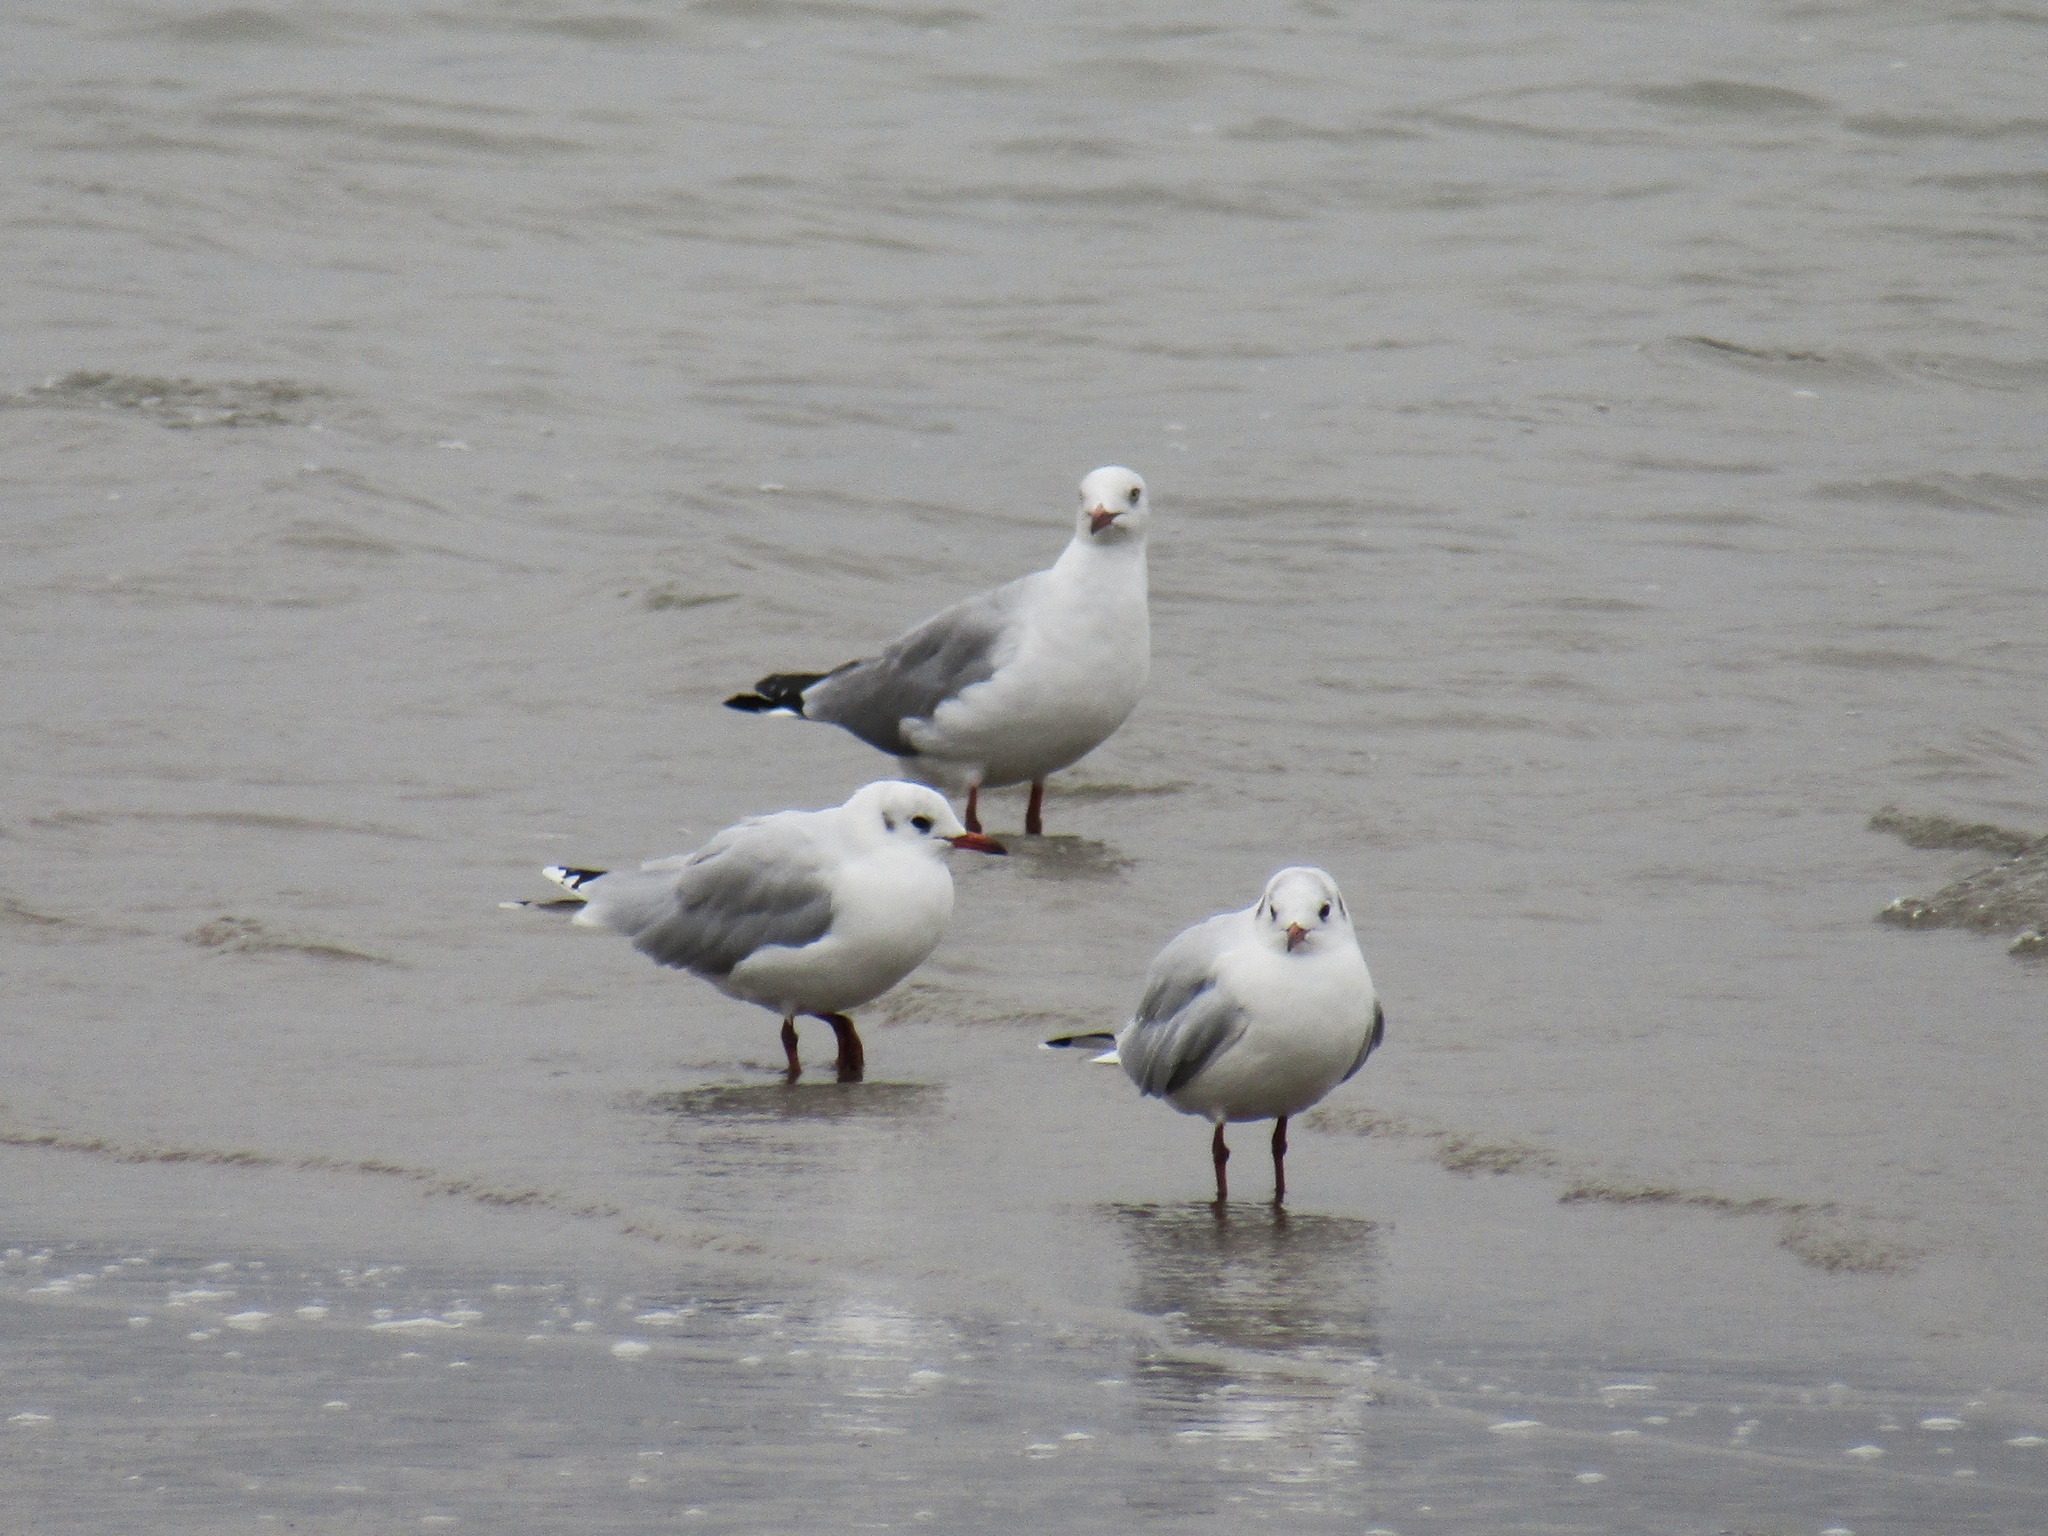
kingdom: Animalia
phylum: Chordata
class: Aves
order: Charadriiformes
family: Laridae
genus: Chroicocephalus
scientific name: Chroicocephalus maculipennis
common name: Brown-hooded gull
